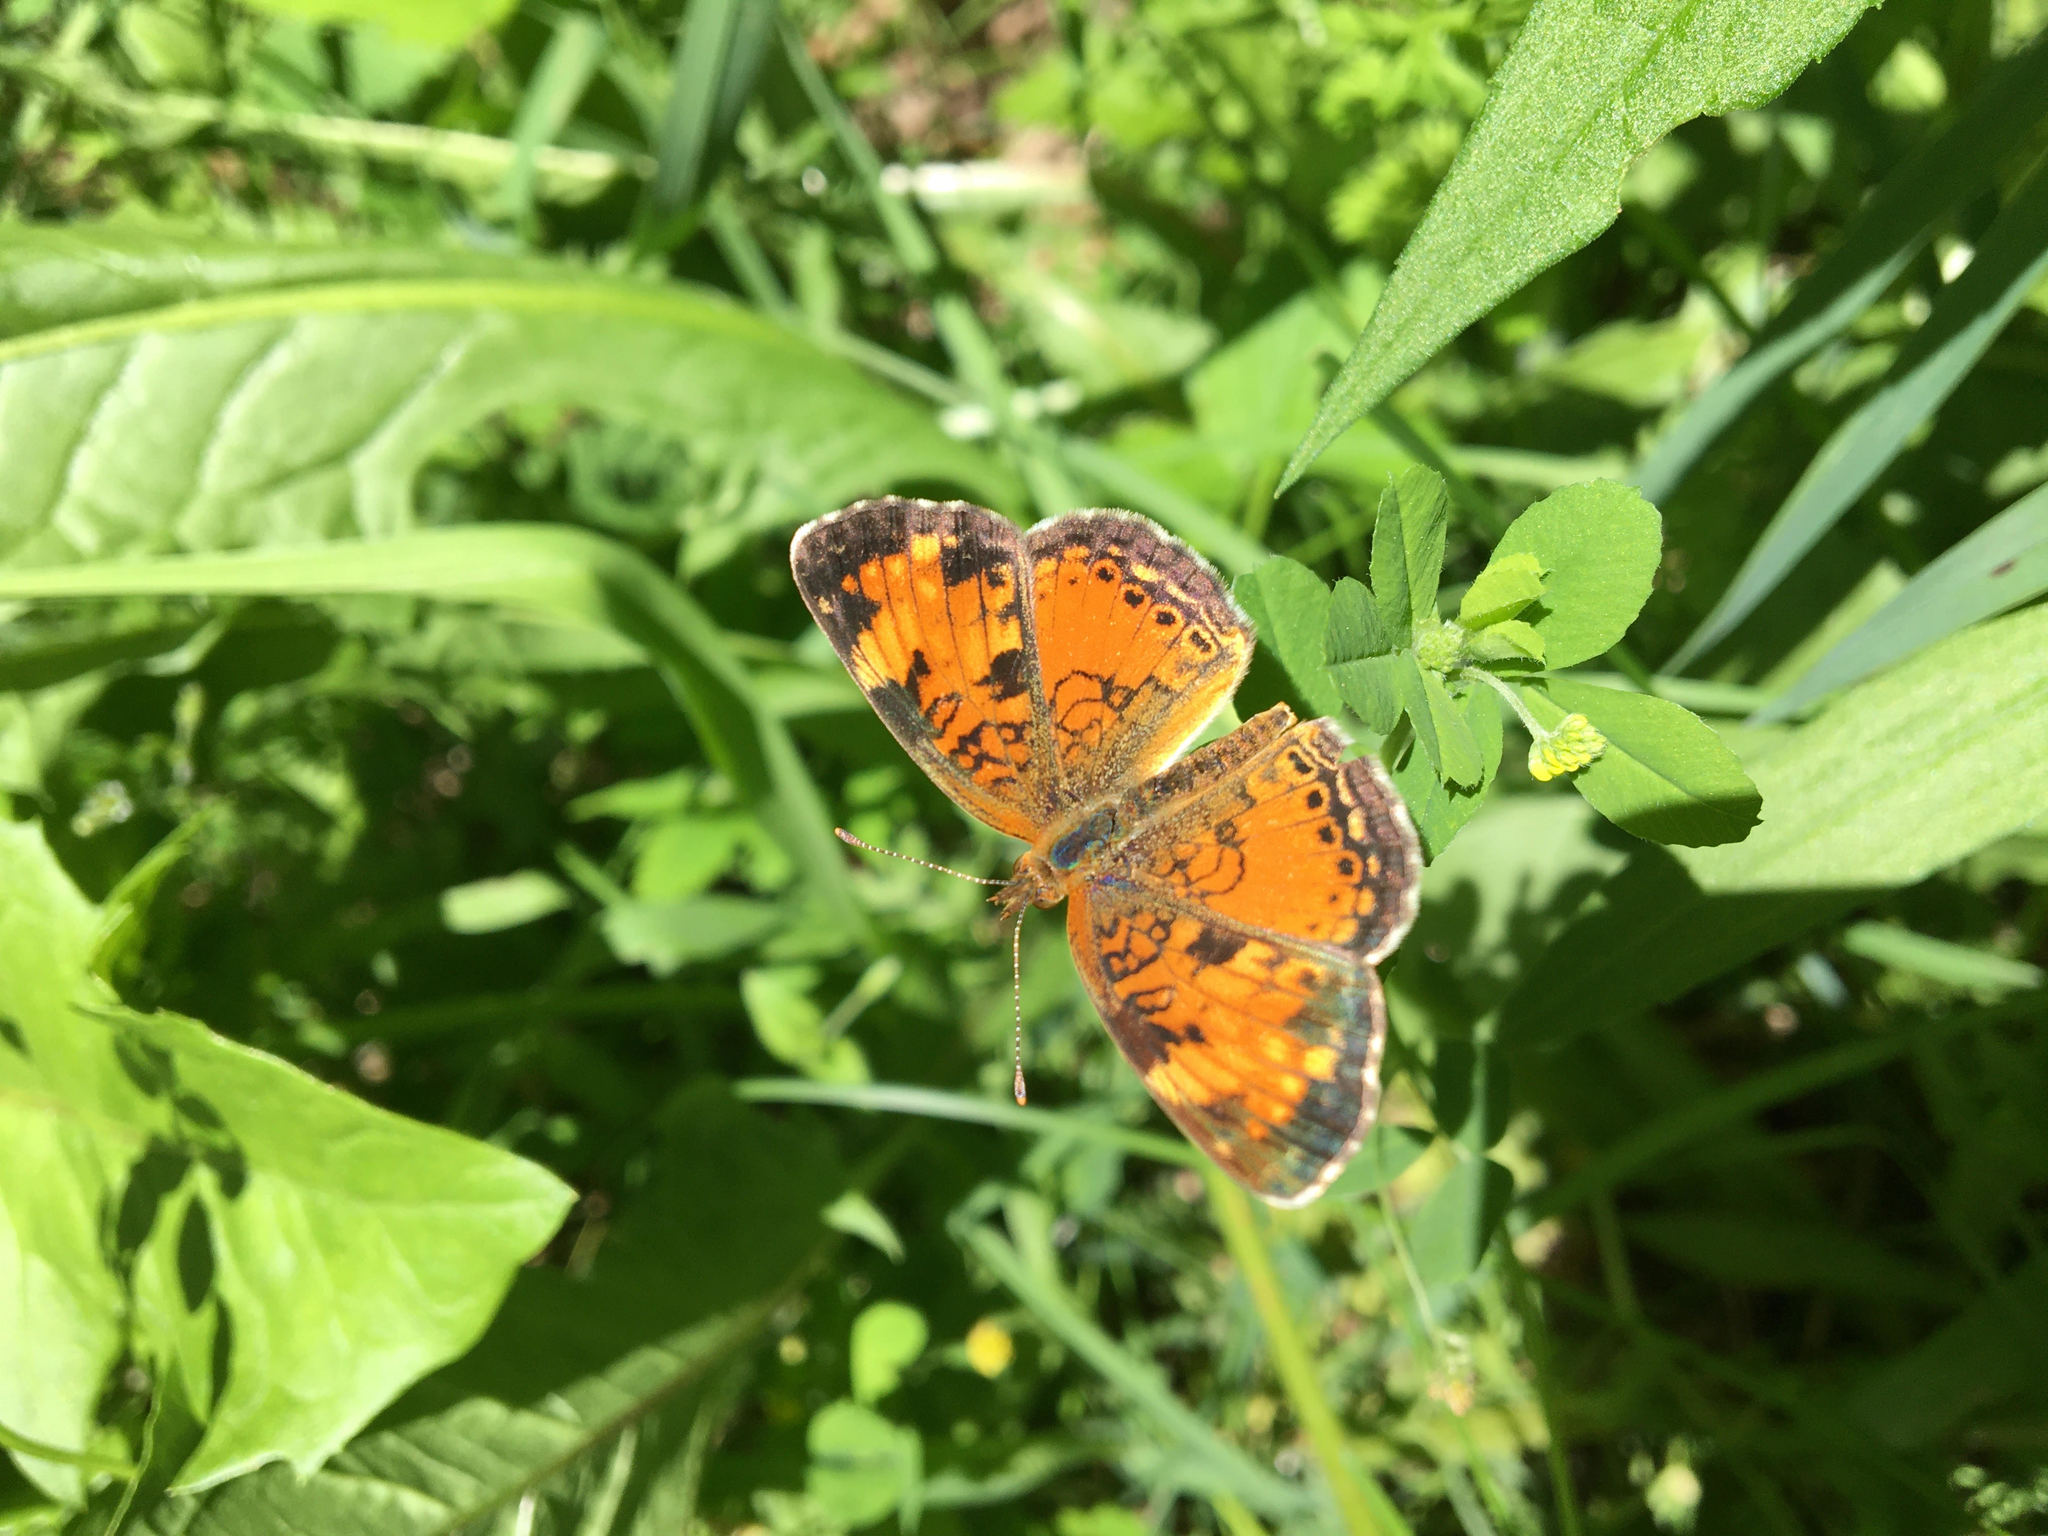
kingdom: Animalia
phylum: Arthropoda
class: Insecta
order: Lepidoptera
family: Nymphalidae
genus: Phyciodes
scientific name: Phyciodes tharos
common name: Pearl crescent
